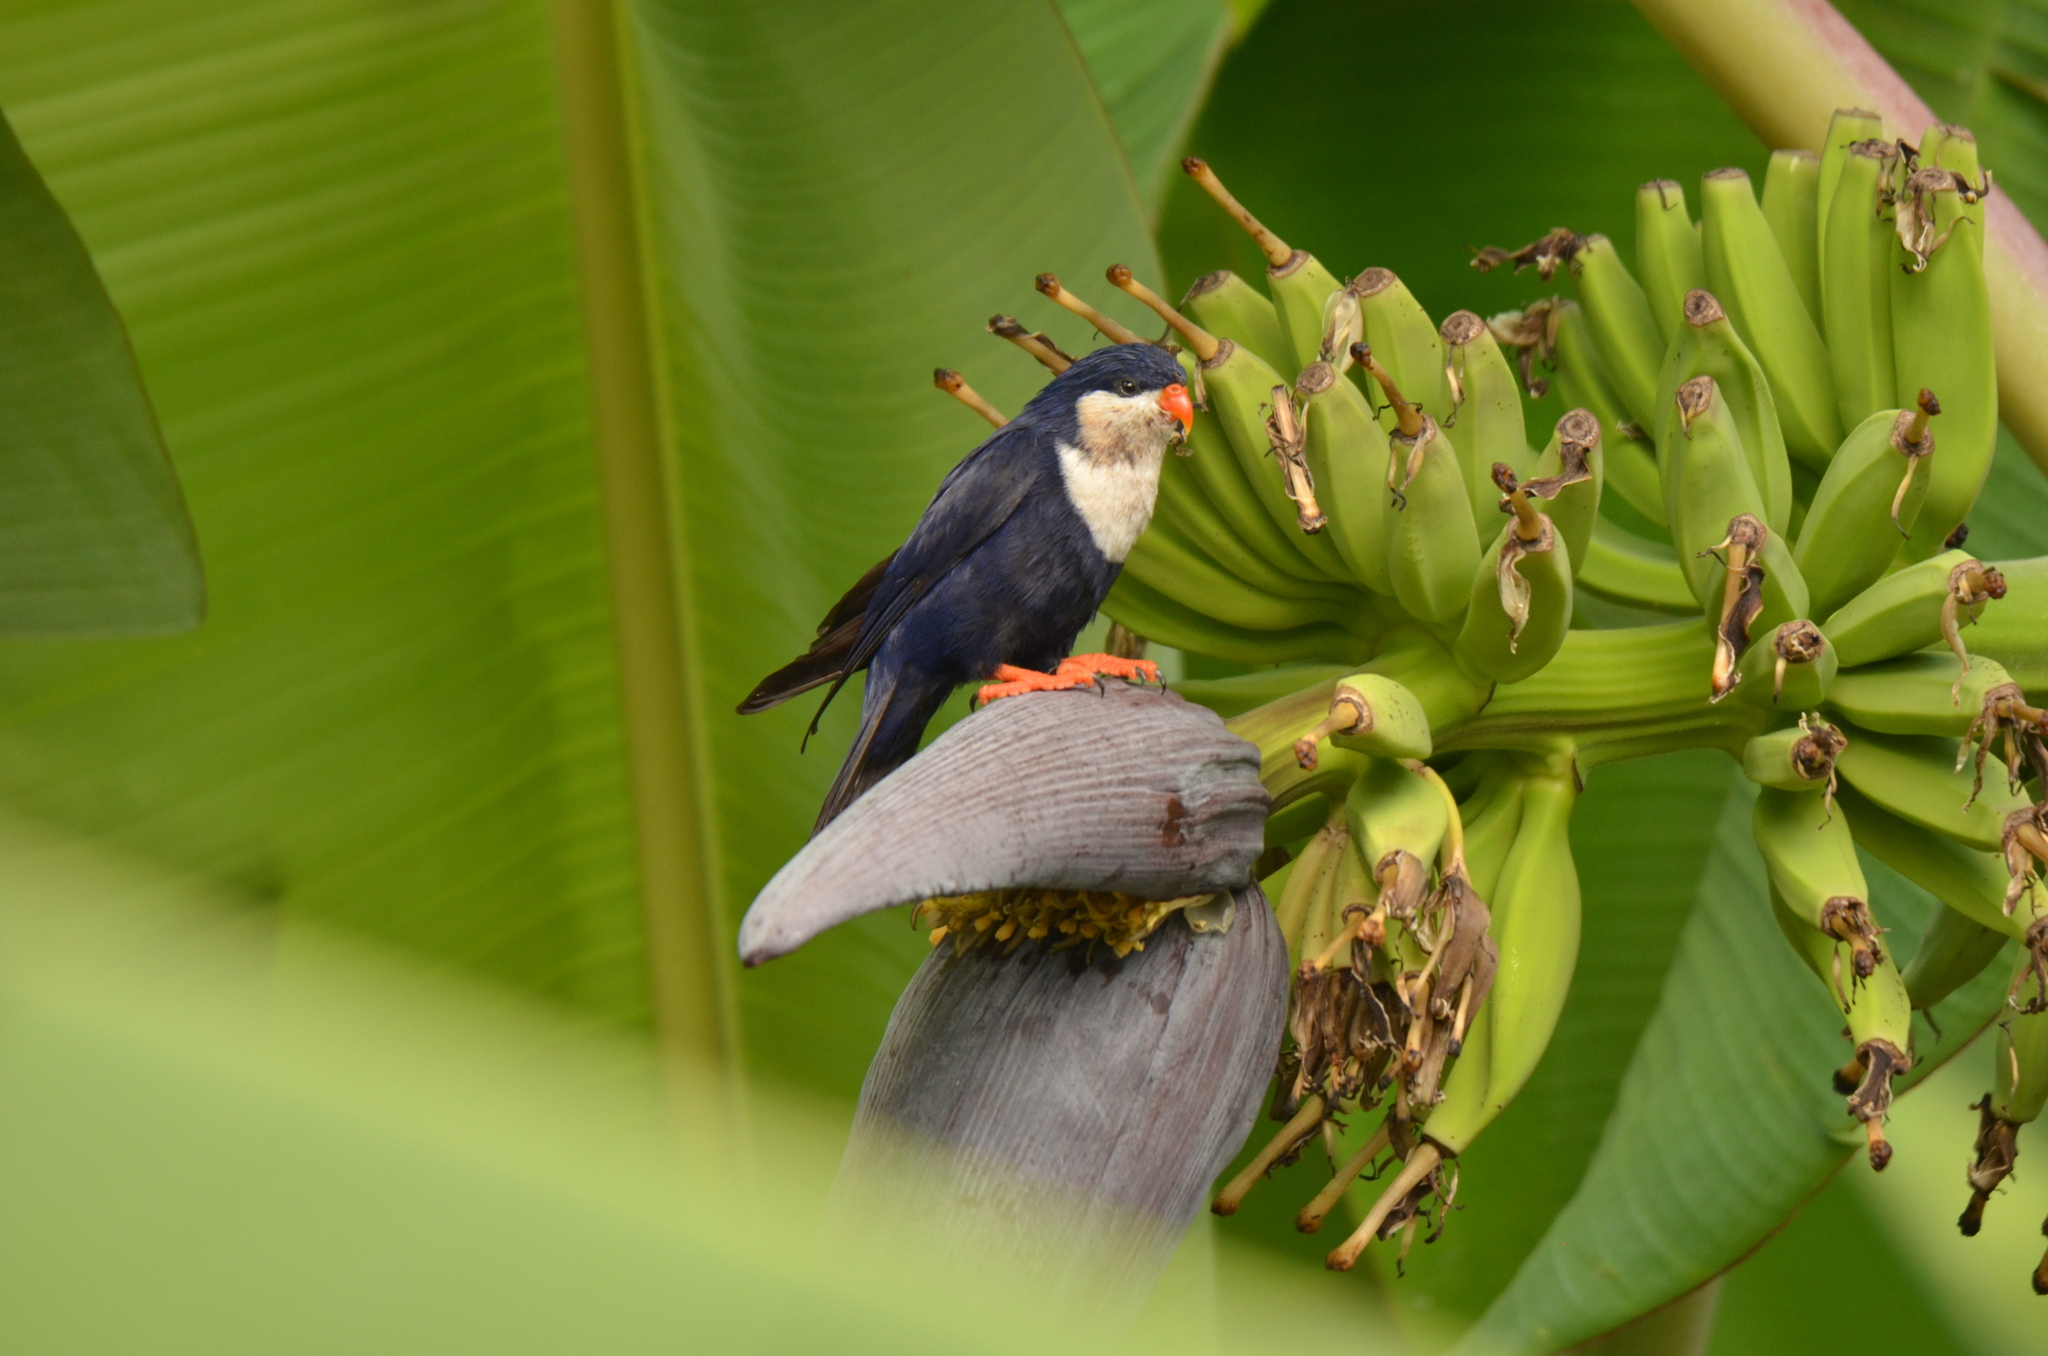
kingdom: Animalia
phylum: Chordata
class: Aves
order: Psittaciformes
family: Psittacidae
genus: Vini
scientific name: Vini peruviana
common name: Blue lorikeet
